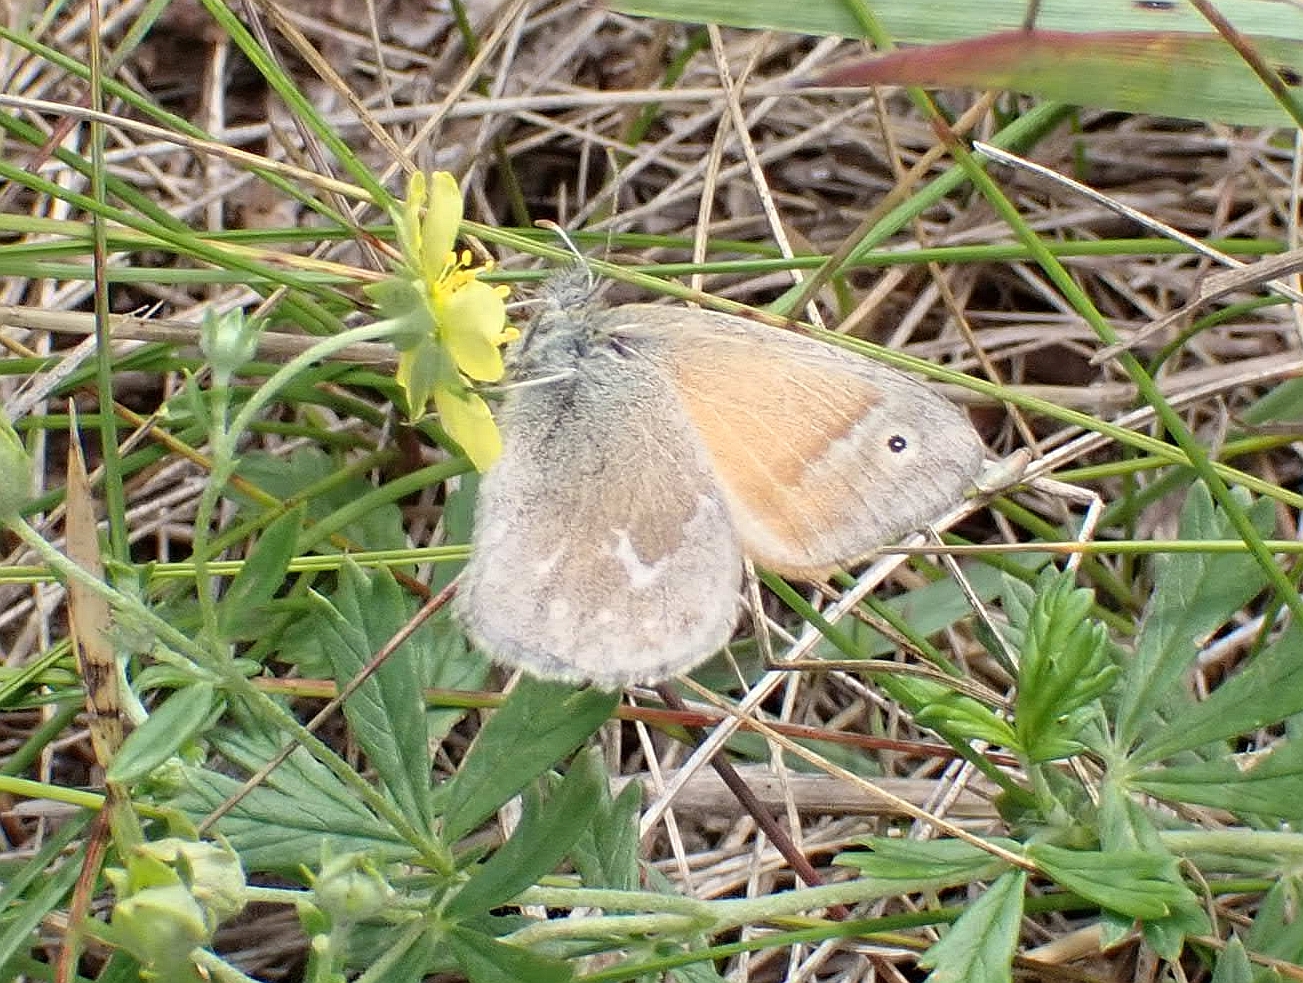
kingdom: Animalia
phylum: Arthropoda
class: Insecta
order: Lepidoptera
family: Nymphalidae
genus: Coenonympha
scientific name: Coenonympha california
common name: Common ringlet
